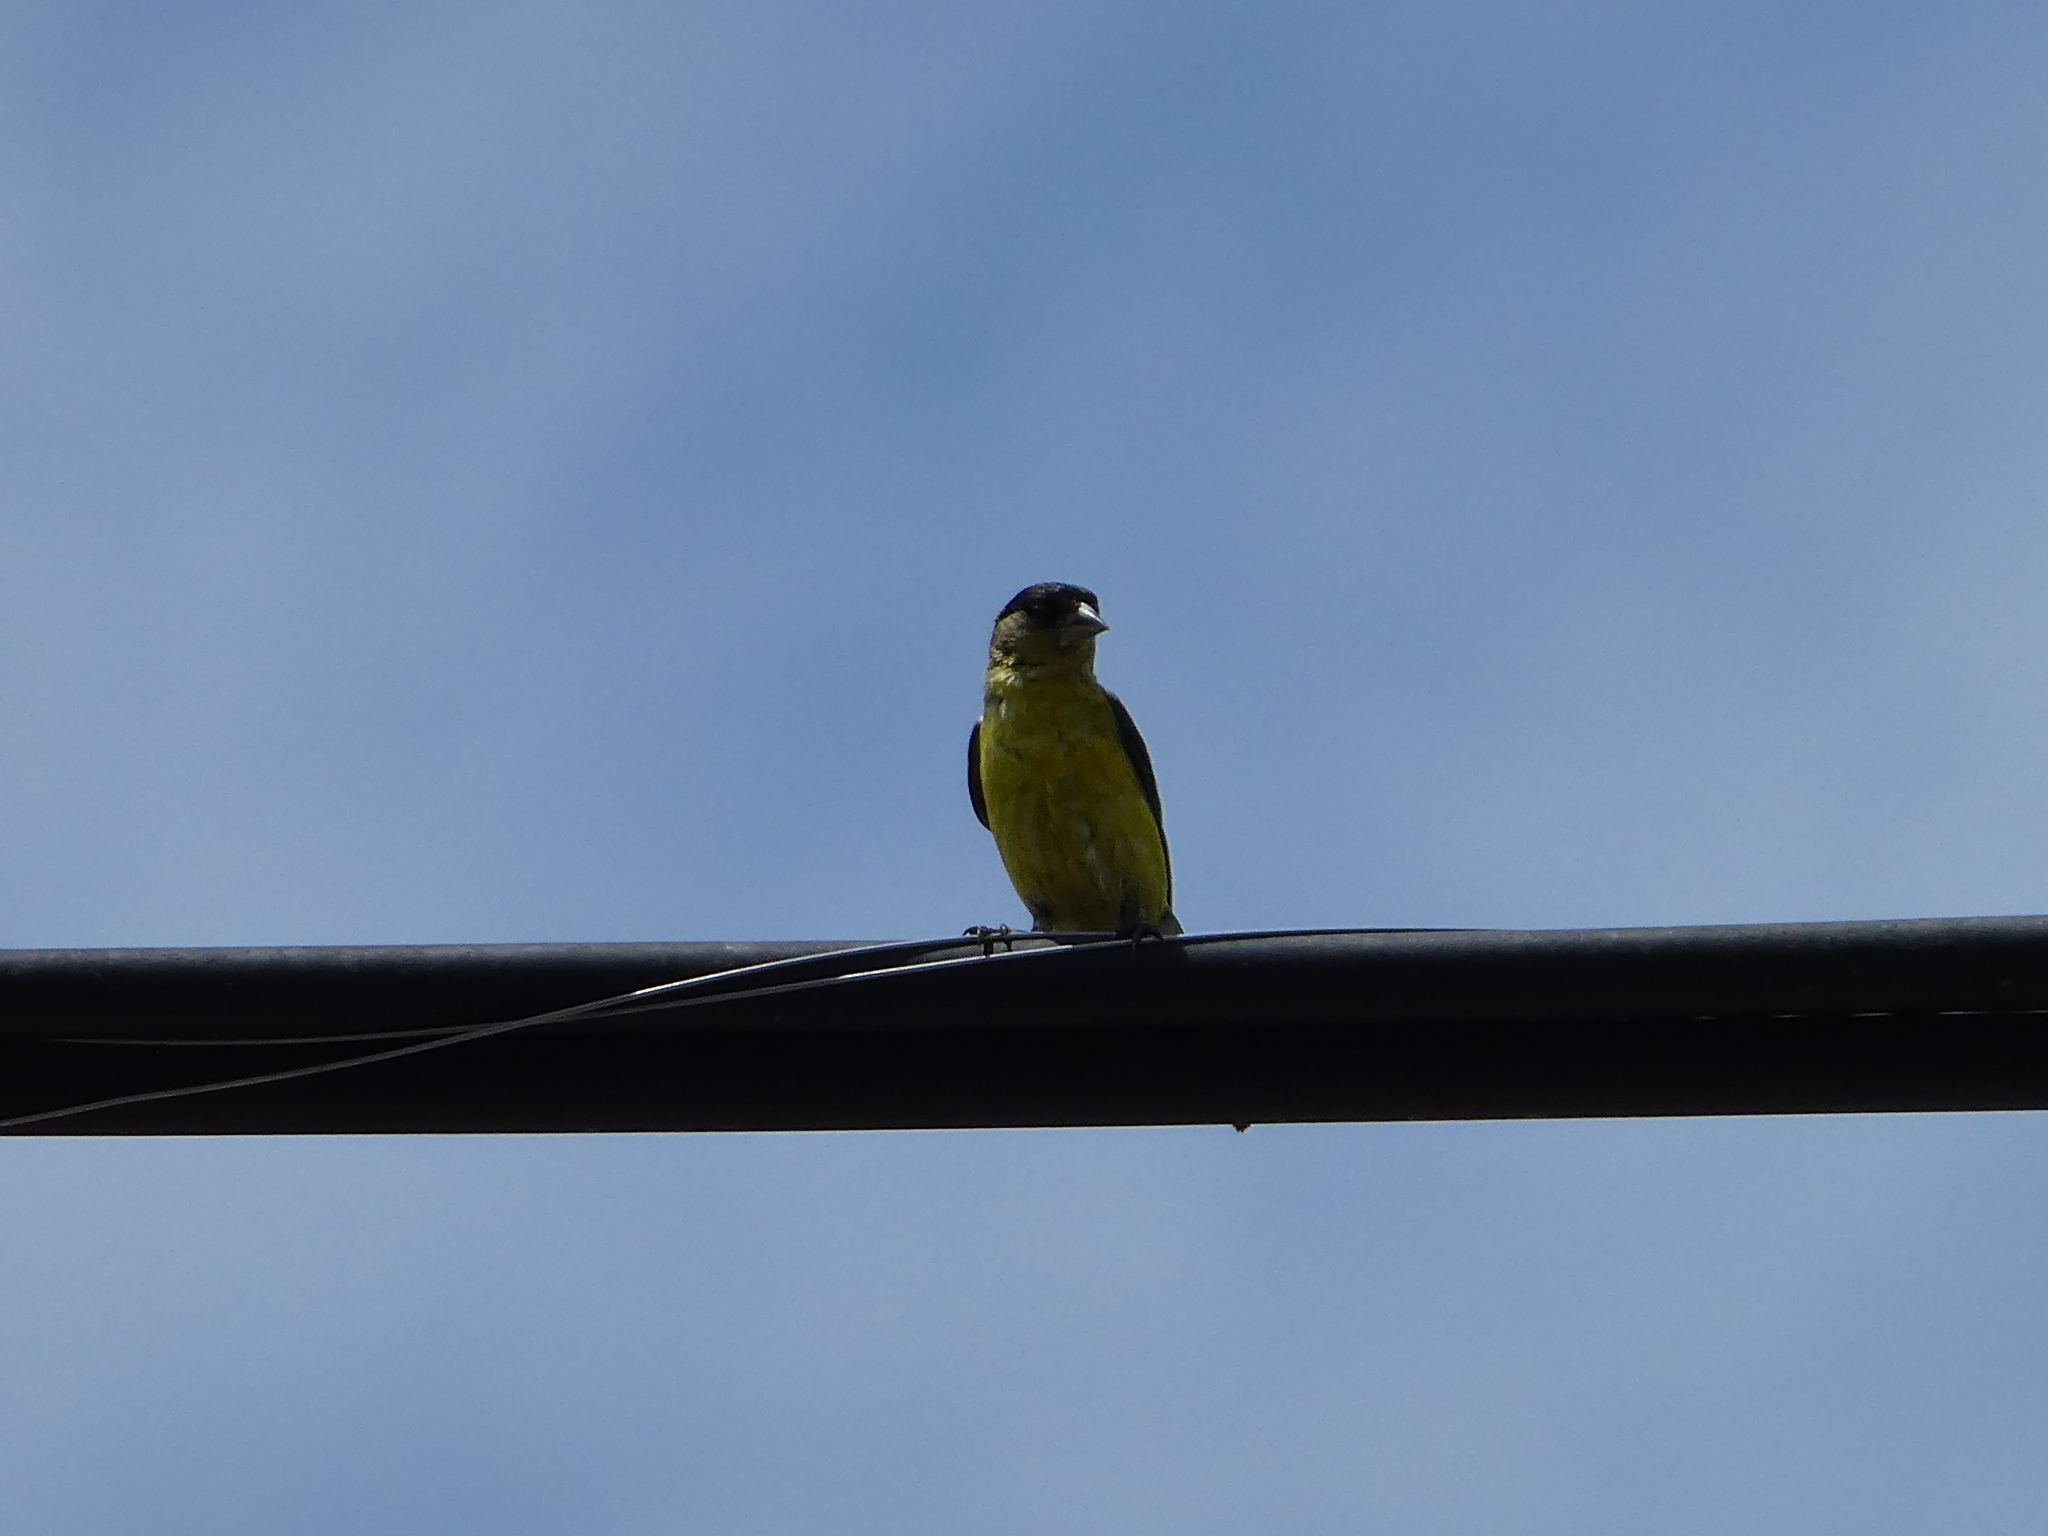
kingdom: Animalia
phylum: Chordata
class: Aves
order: Passeriformes
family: Fringillidae
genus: Spinus
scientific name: Spinus psaltria
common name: Lesser goldfinch
